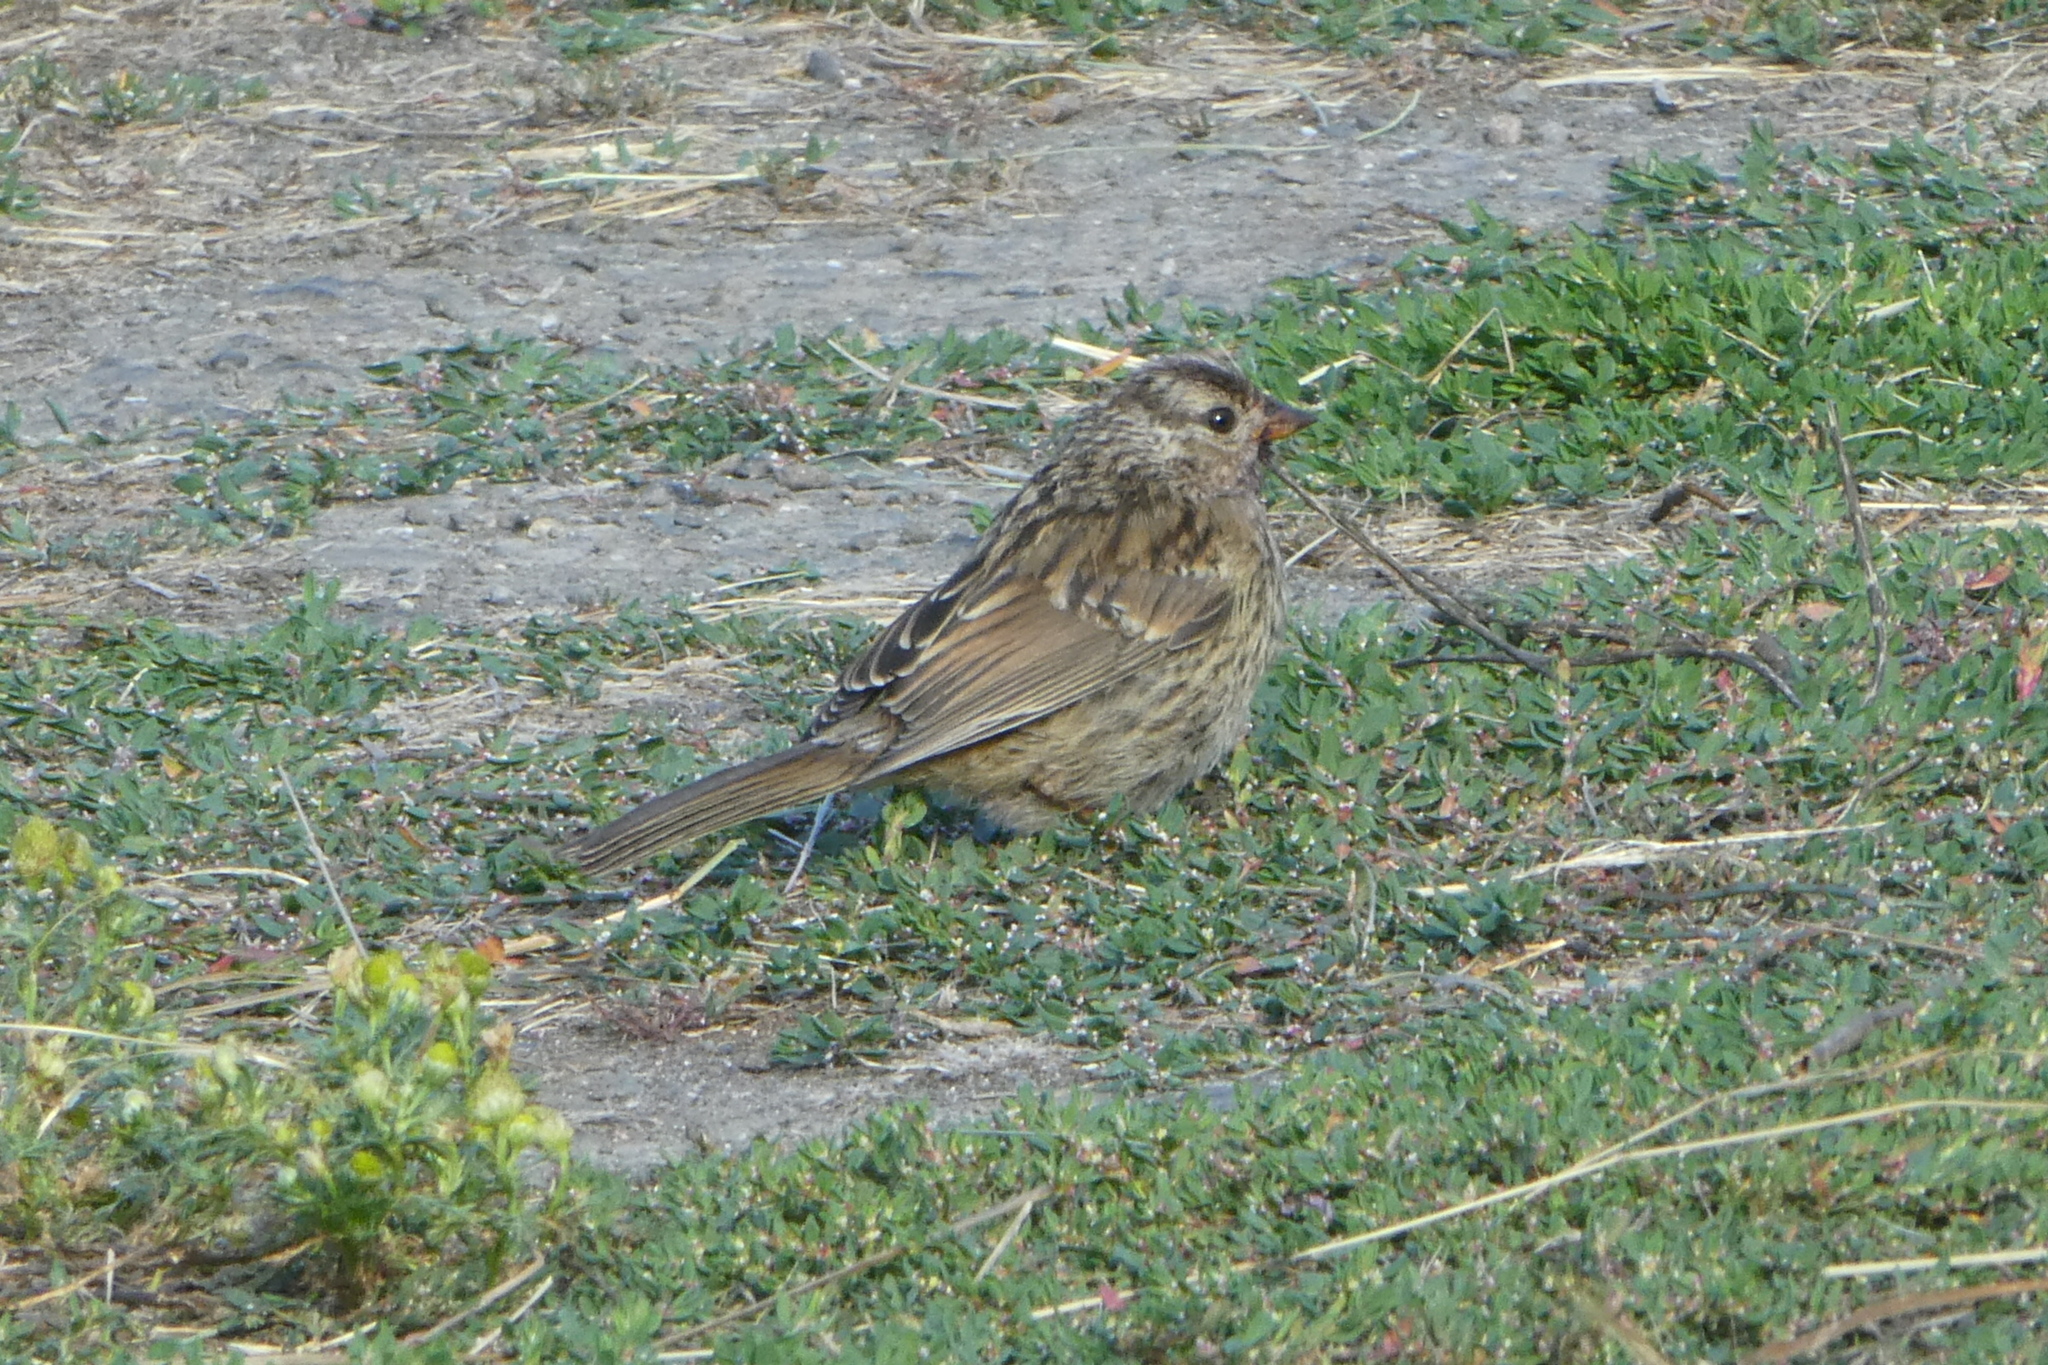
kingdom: Animalia
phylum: Chordata
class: Aves
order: Passeriformes
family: Passerellidae
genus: Zonotrichia
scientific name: Zonotrichia leucophrys
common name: White-crowned sparrow
